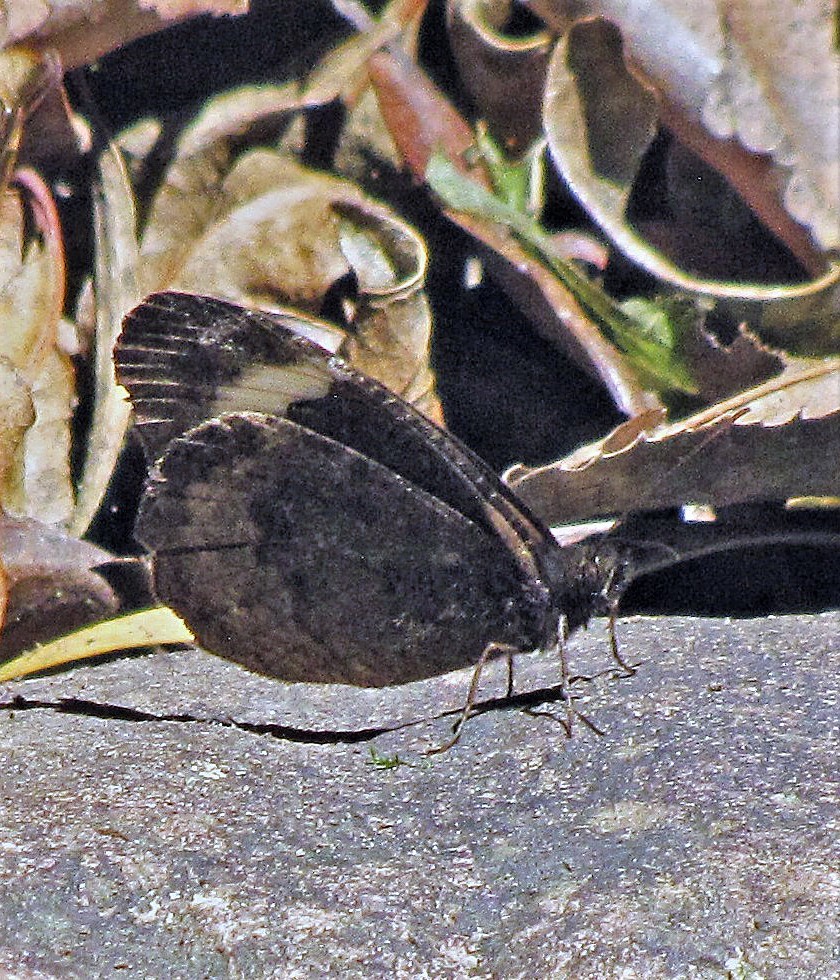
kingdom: Animalia
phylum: Arthropoda
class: Insecta
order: Lepidoptera
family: Nymphalidae
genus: Pedaliodes
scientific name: Pedaliodes porina
